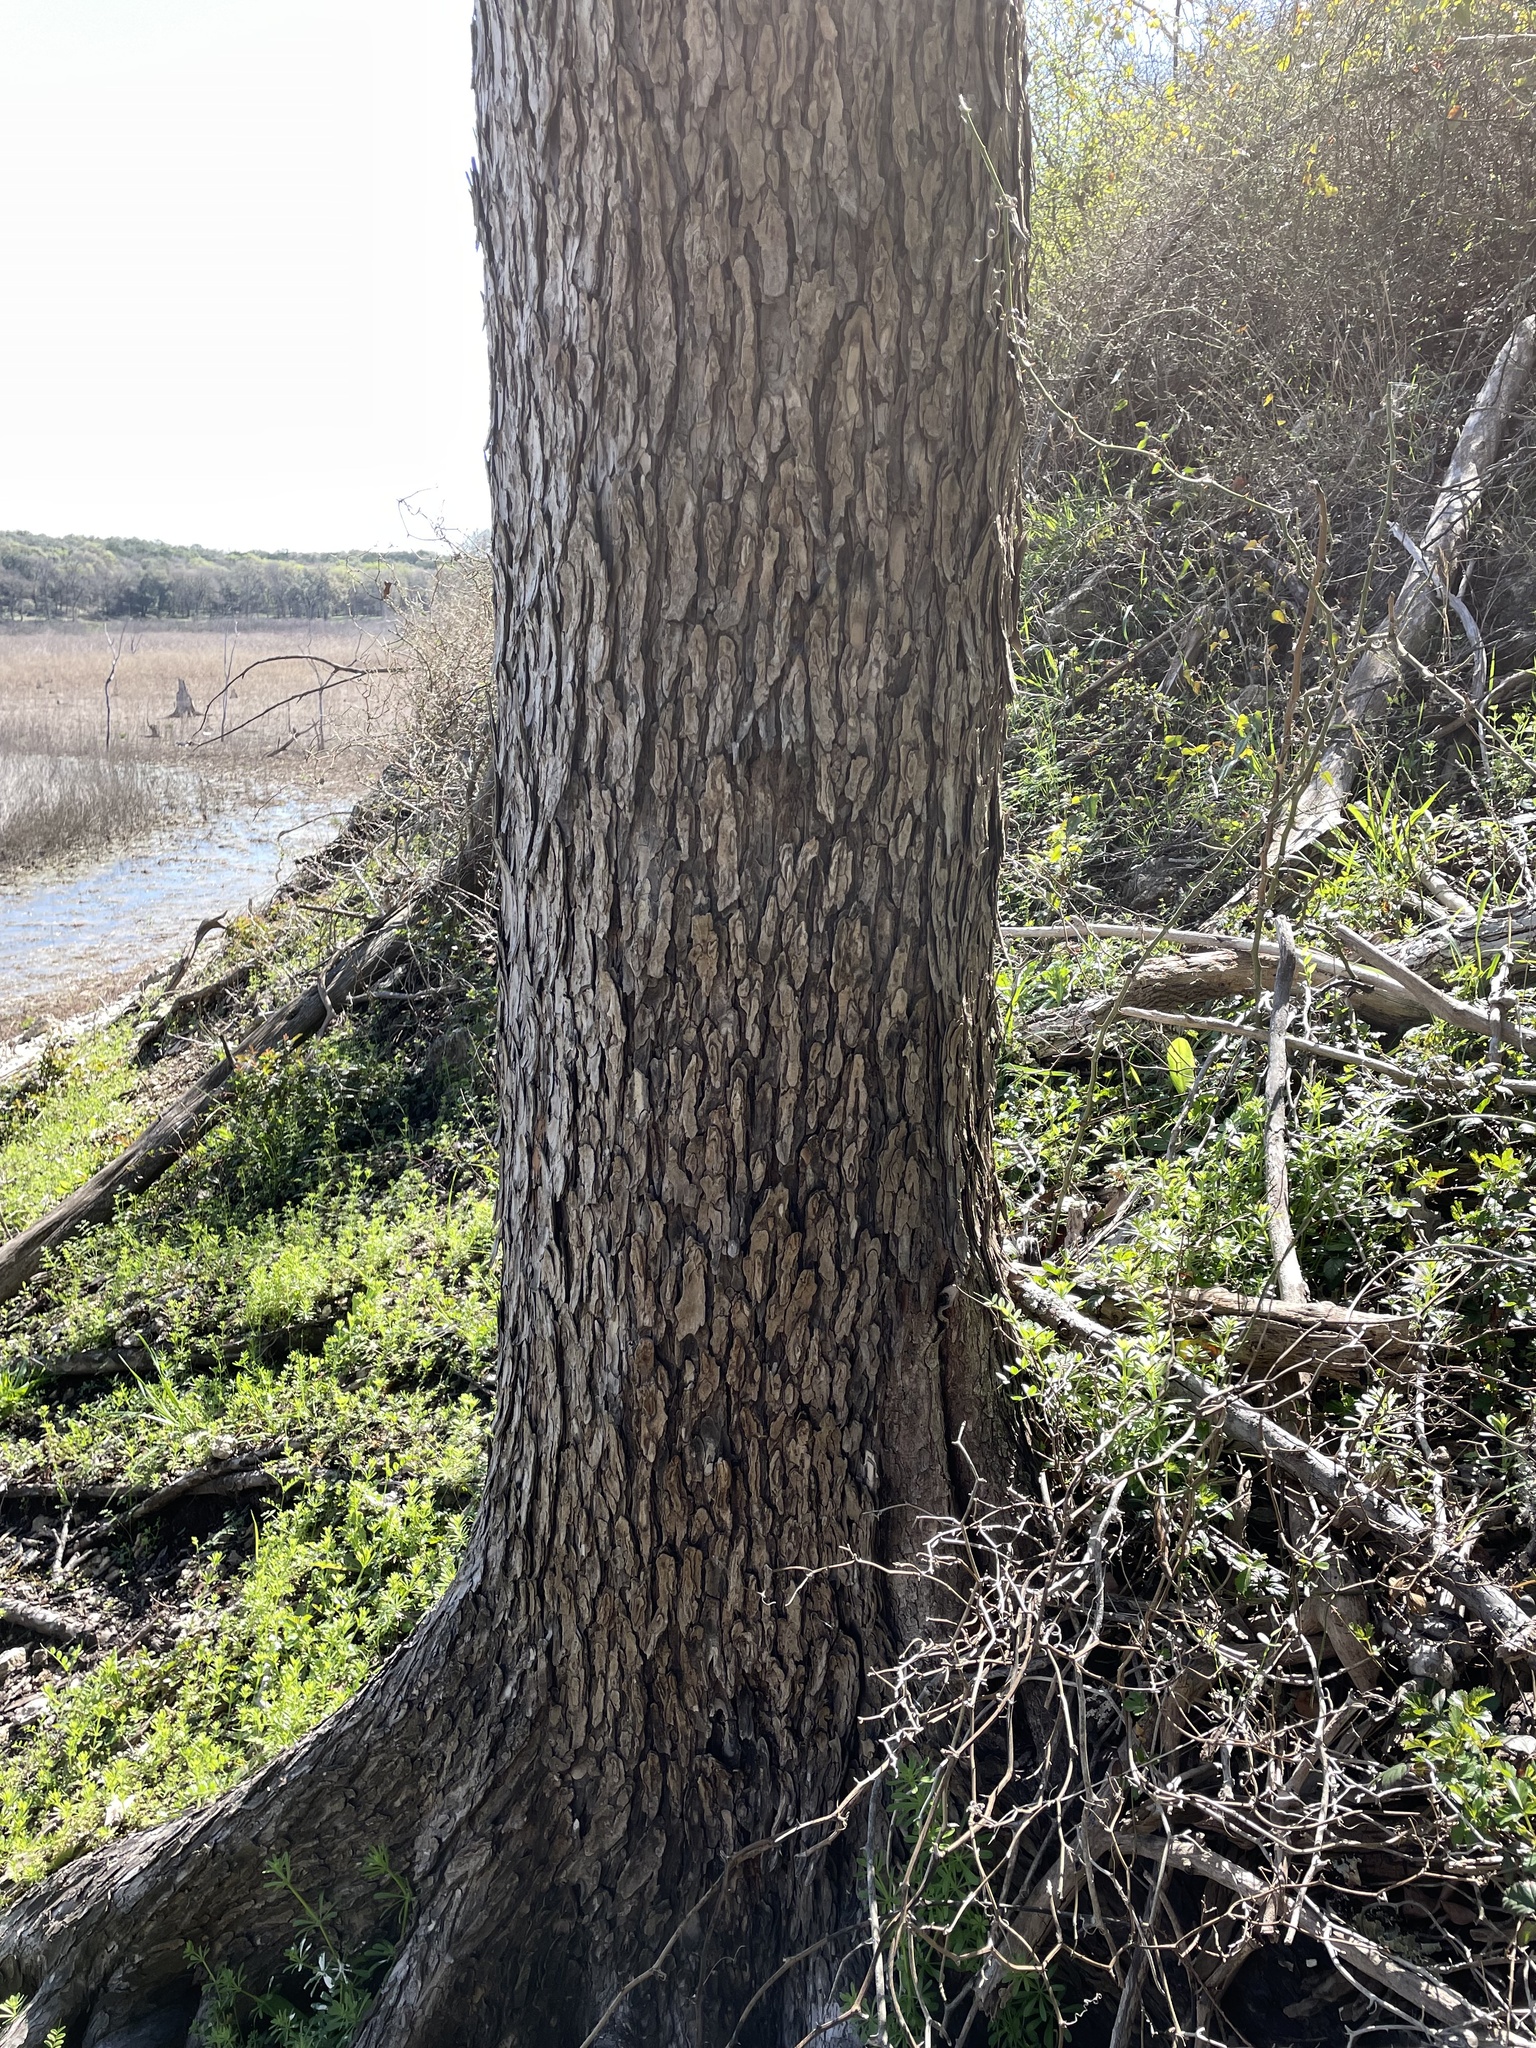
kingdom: Plantae
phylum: Tracheophyta
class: Magnoliopsida
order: Rosales
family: Ulmaceae
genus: Ulmus
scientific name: Ulmus crassifolia
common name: Basket elm
